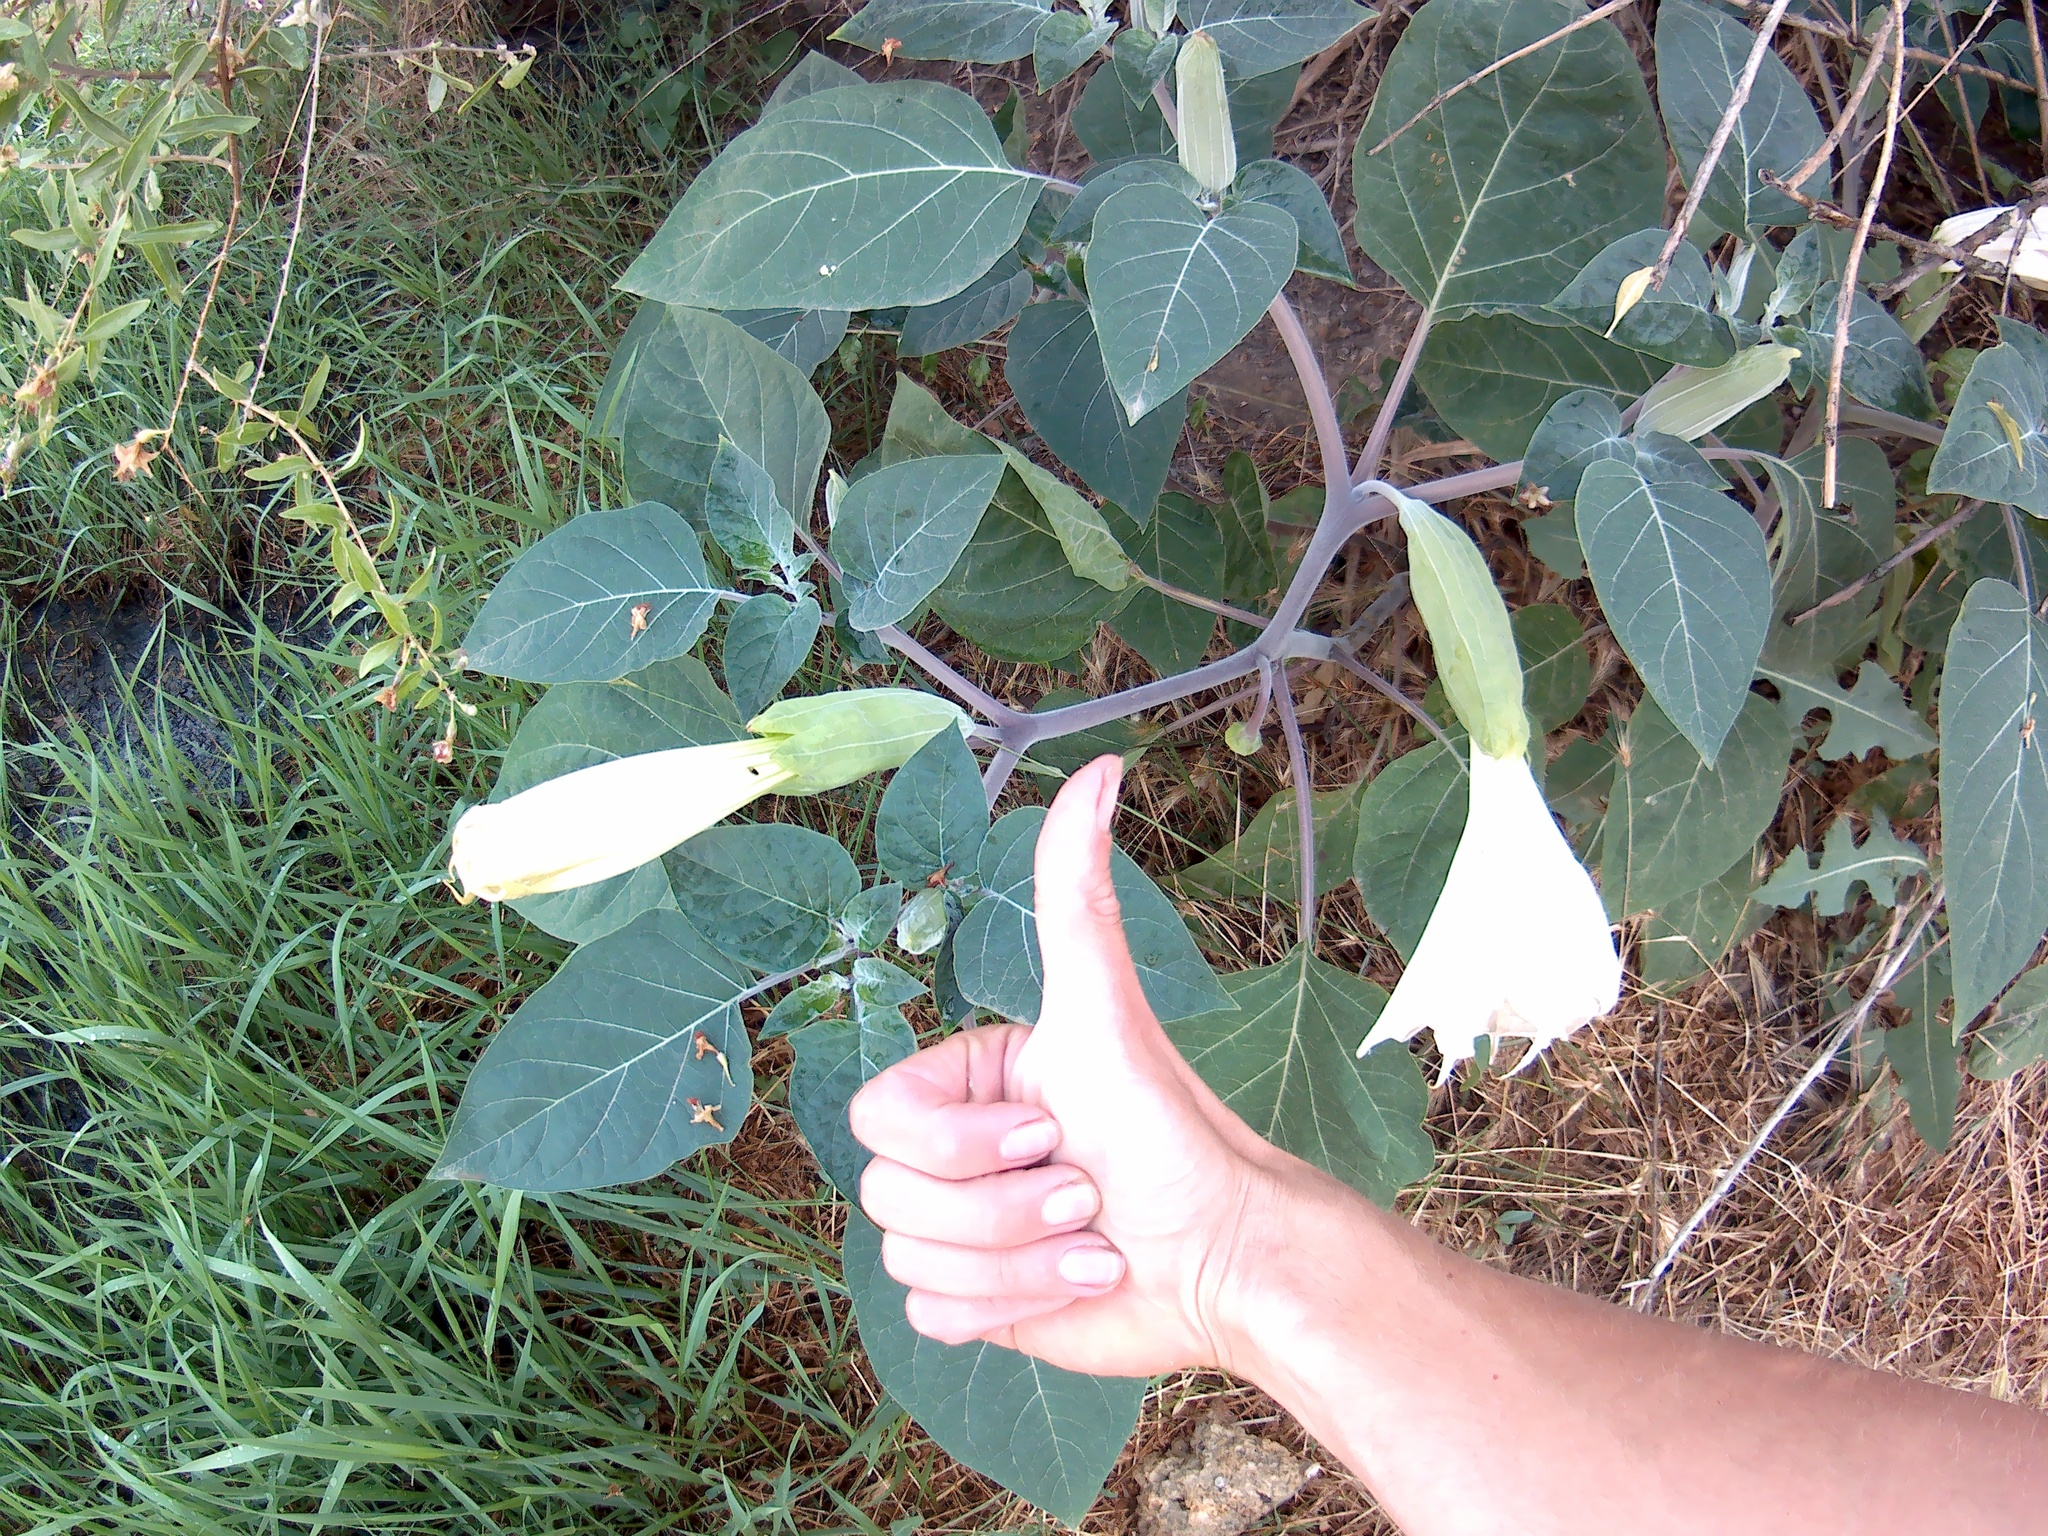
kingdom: Plantae
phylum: Tracheophyta
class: Magnoliopsida
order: Solanales
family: Solanaceae
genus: Datura
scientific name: Datura innoxia
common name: Downy thorn-apple
